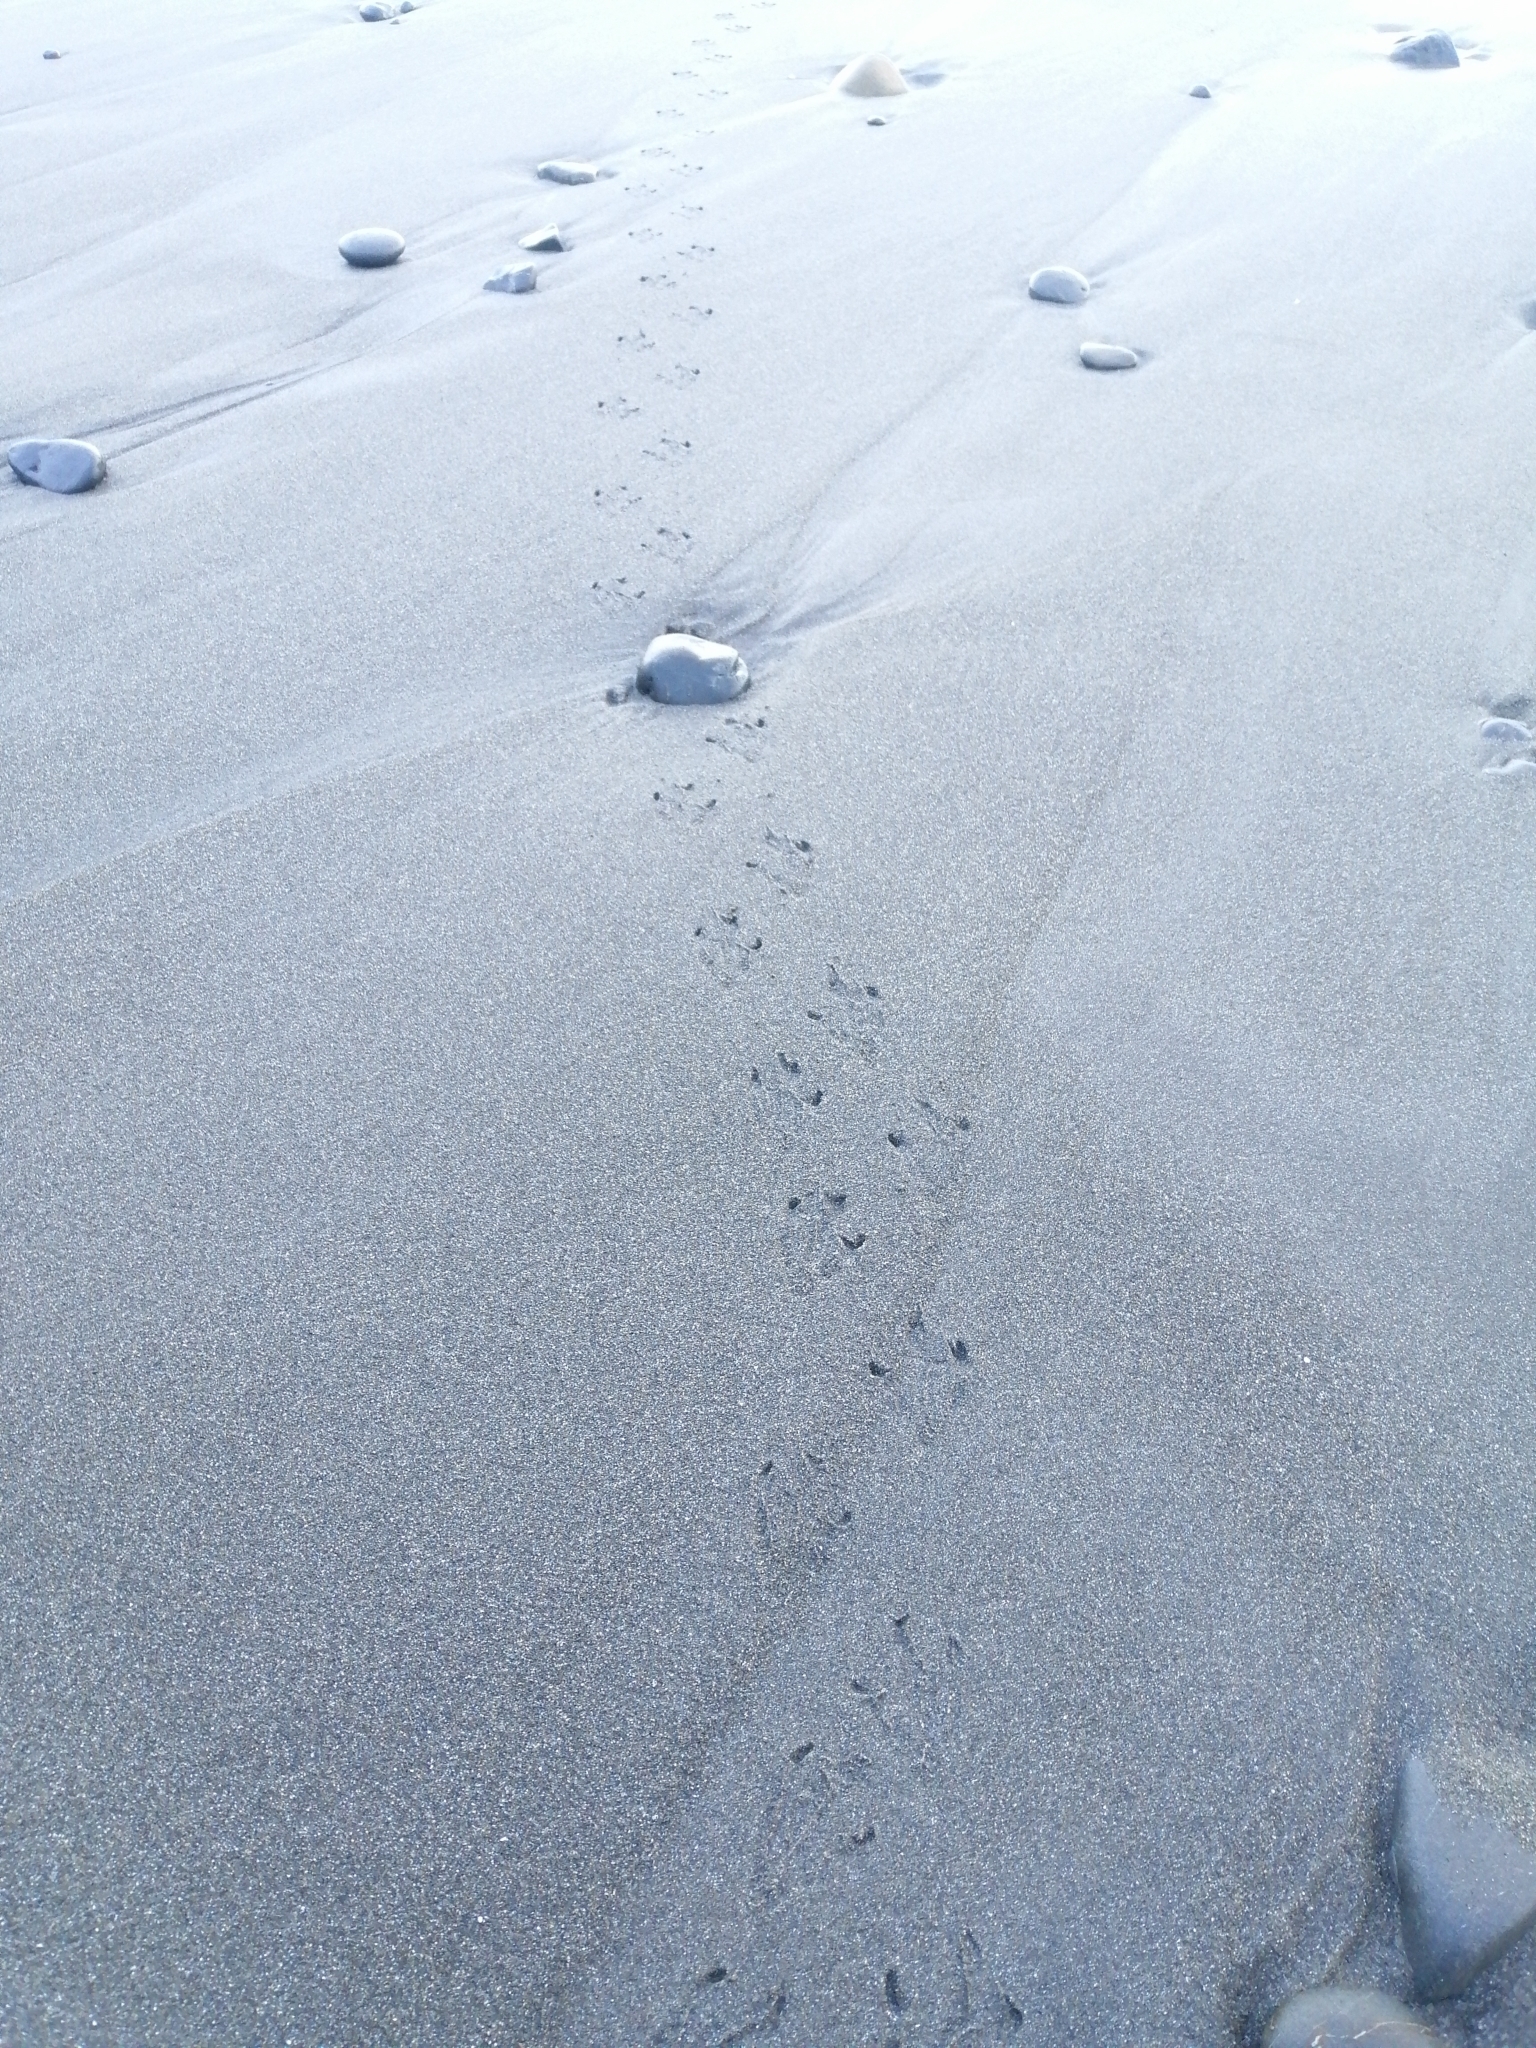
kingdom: Animalia
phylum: Chordata
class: Aves
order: Sphenisciformes
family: Spheniscidae
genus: Eudyptula
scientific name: Eudyptula minor
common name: Little penguin
